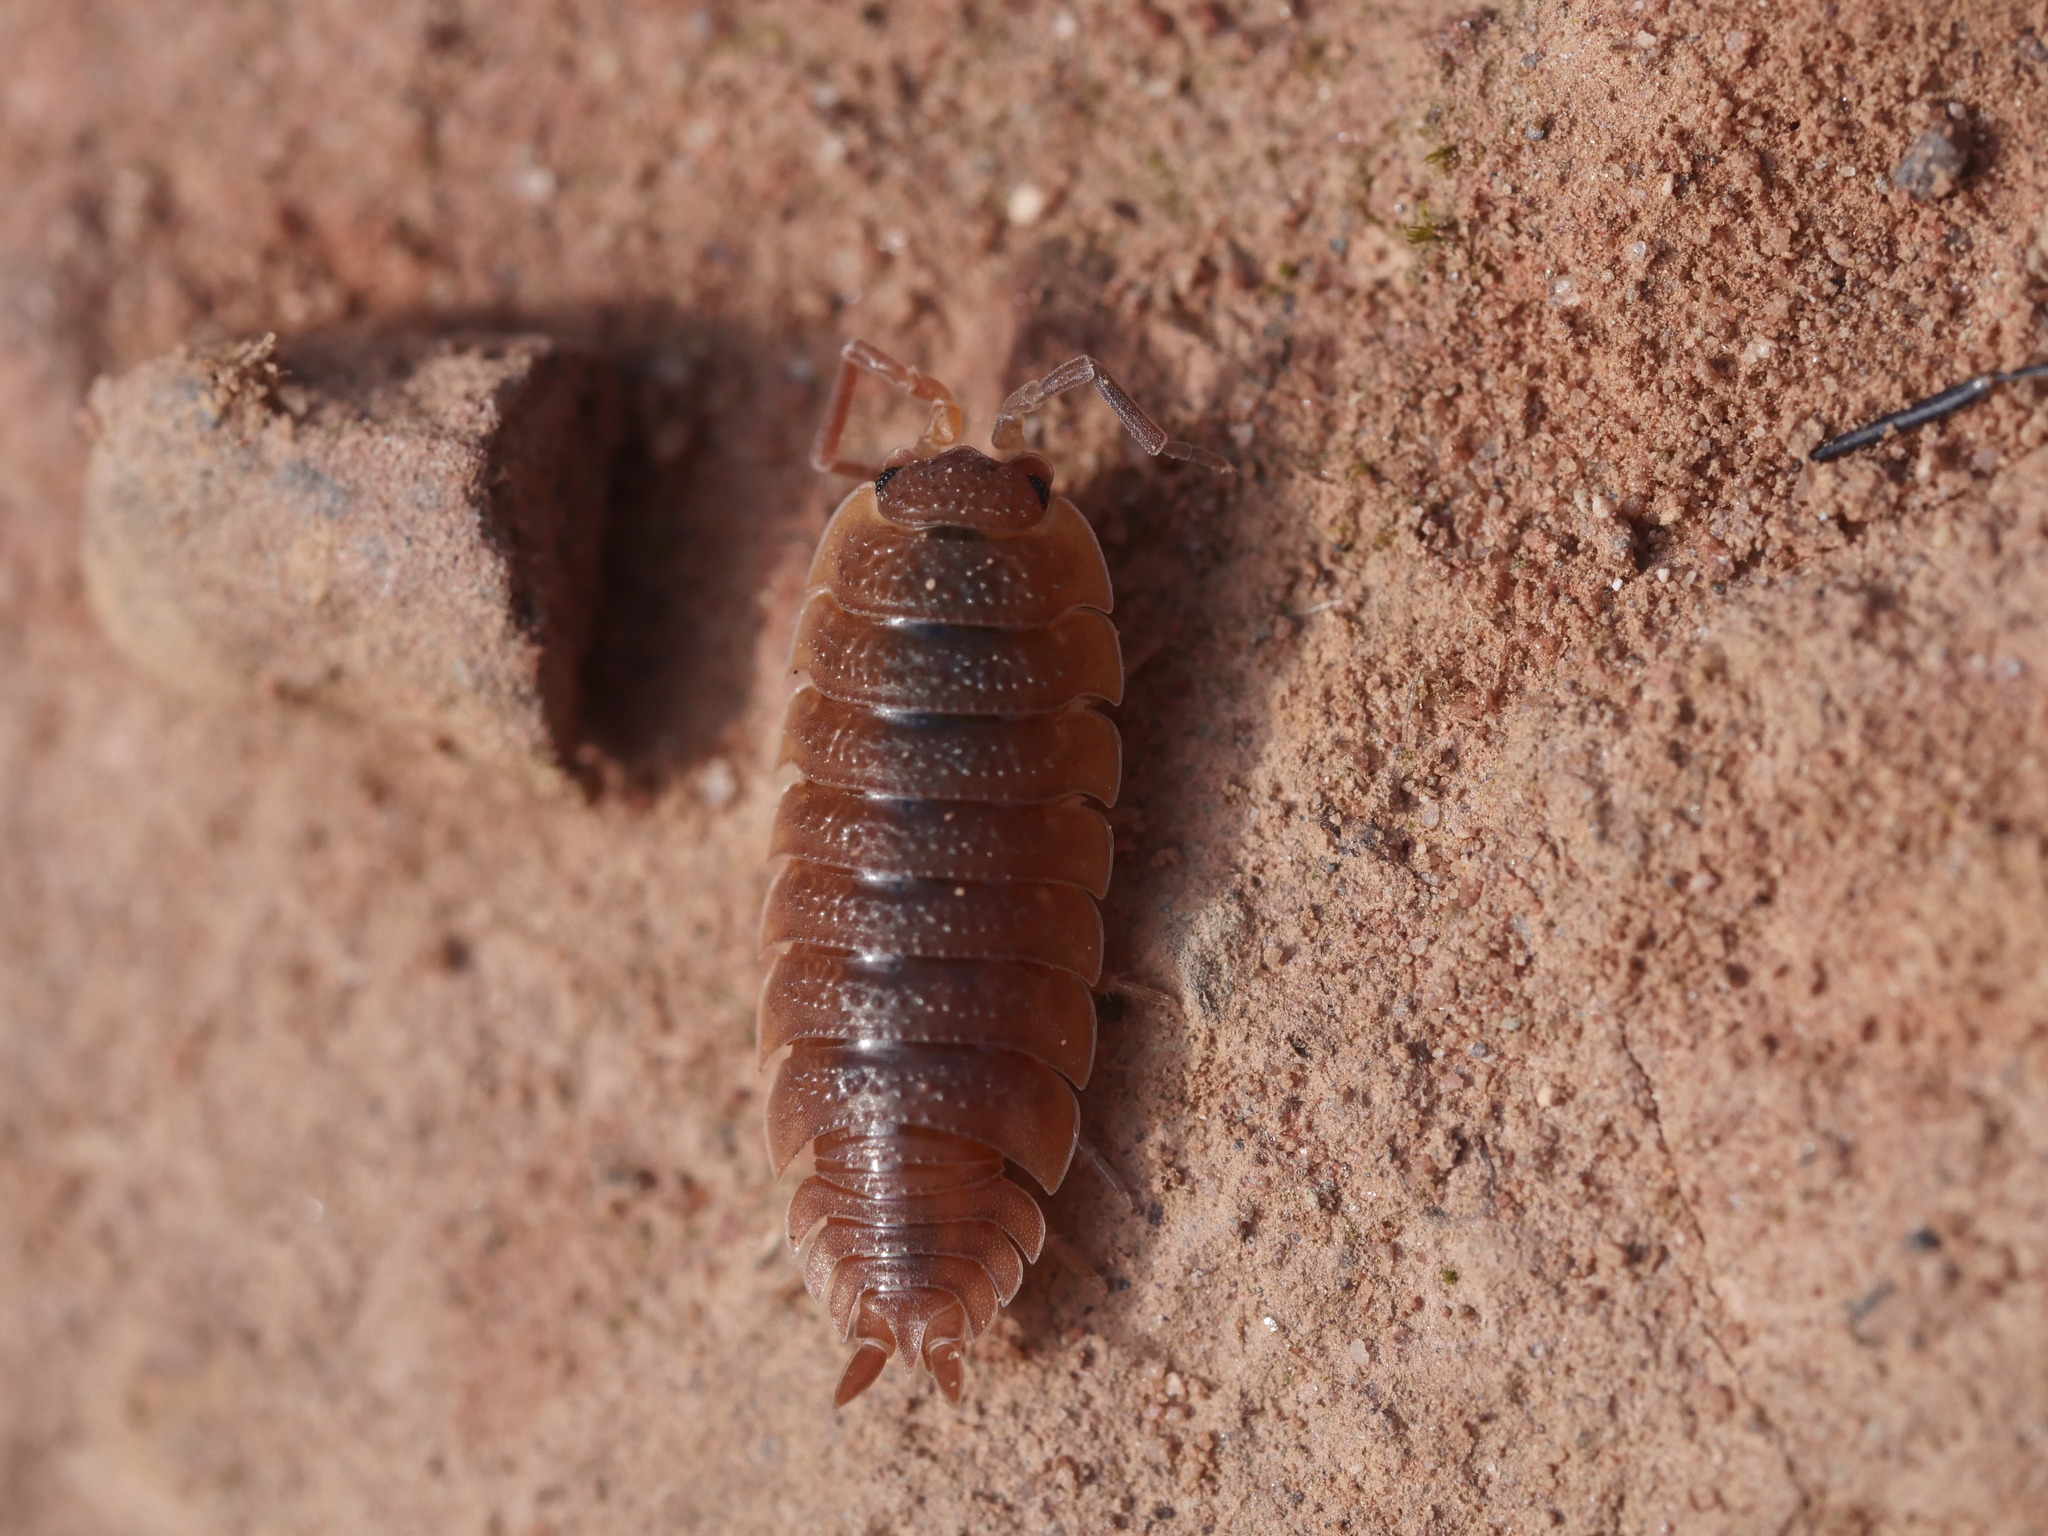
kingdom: Animalia
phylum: Arthropoda
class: Malacostraca
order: Isopoda
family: Porcellionidae
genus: Porcellio
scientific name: Porcellio scaber
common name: Common rough woodlouse
